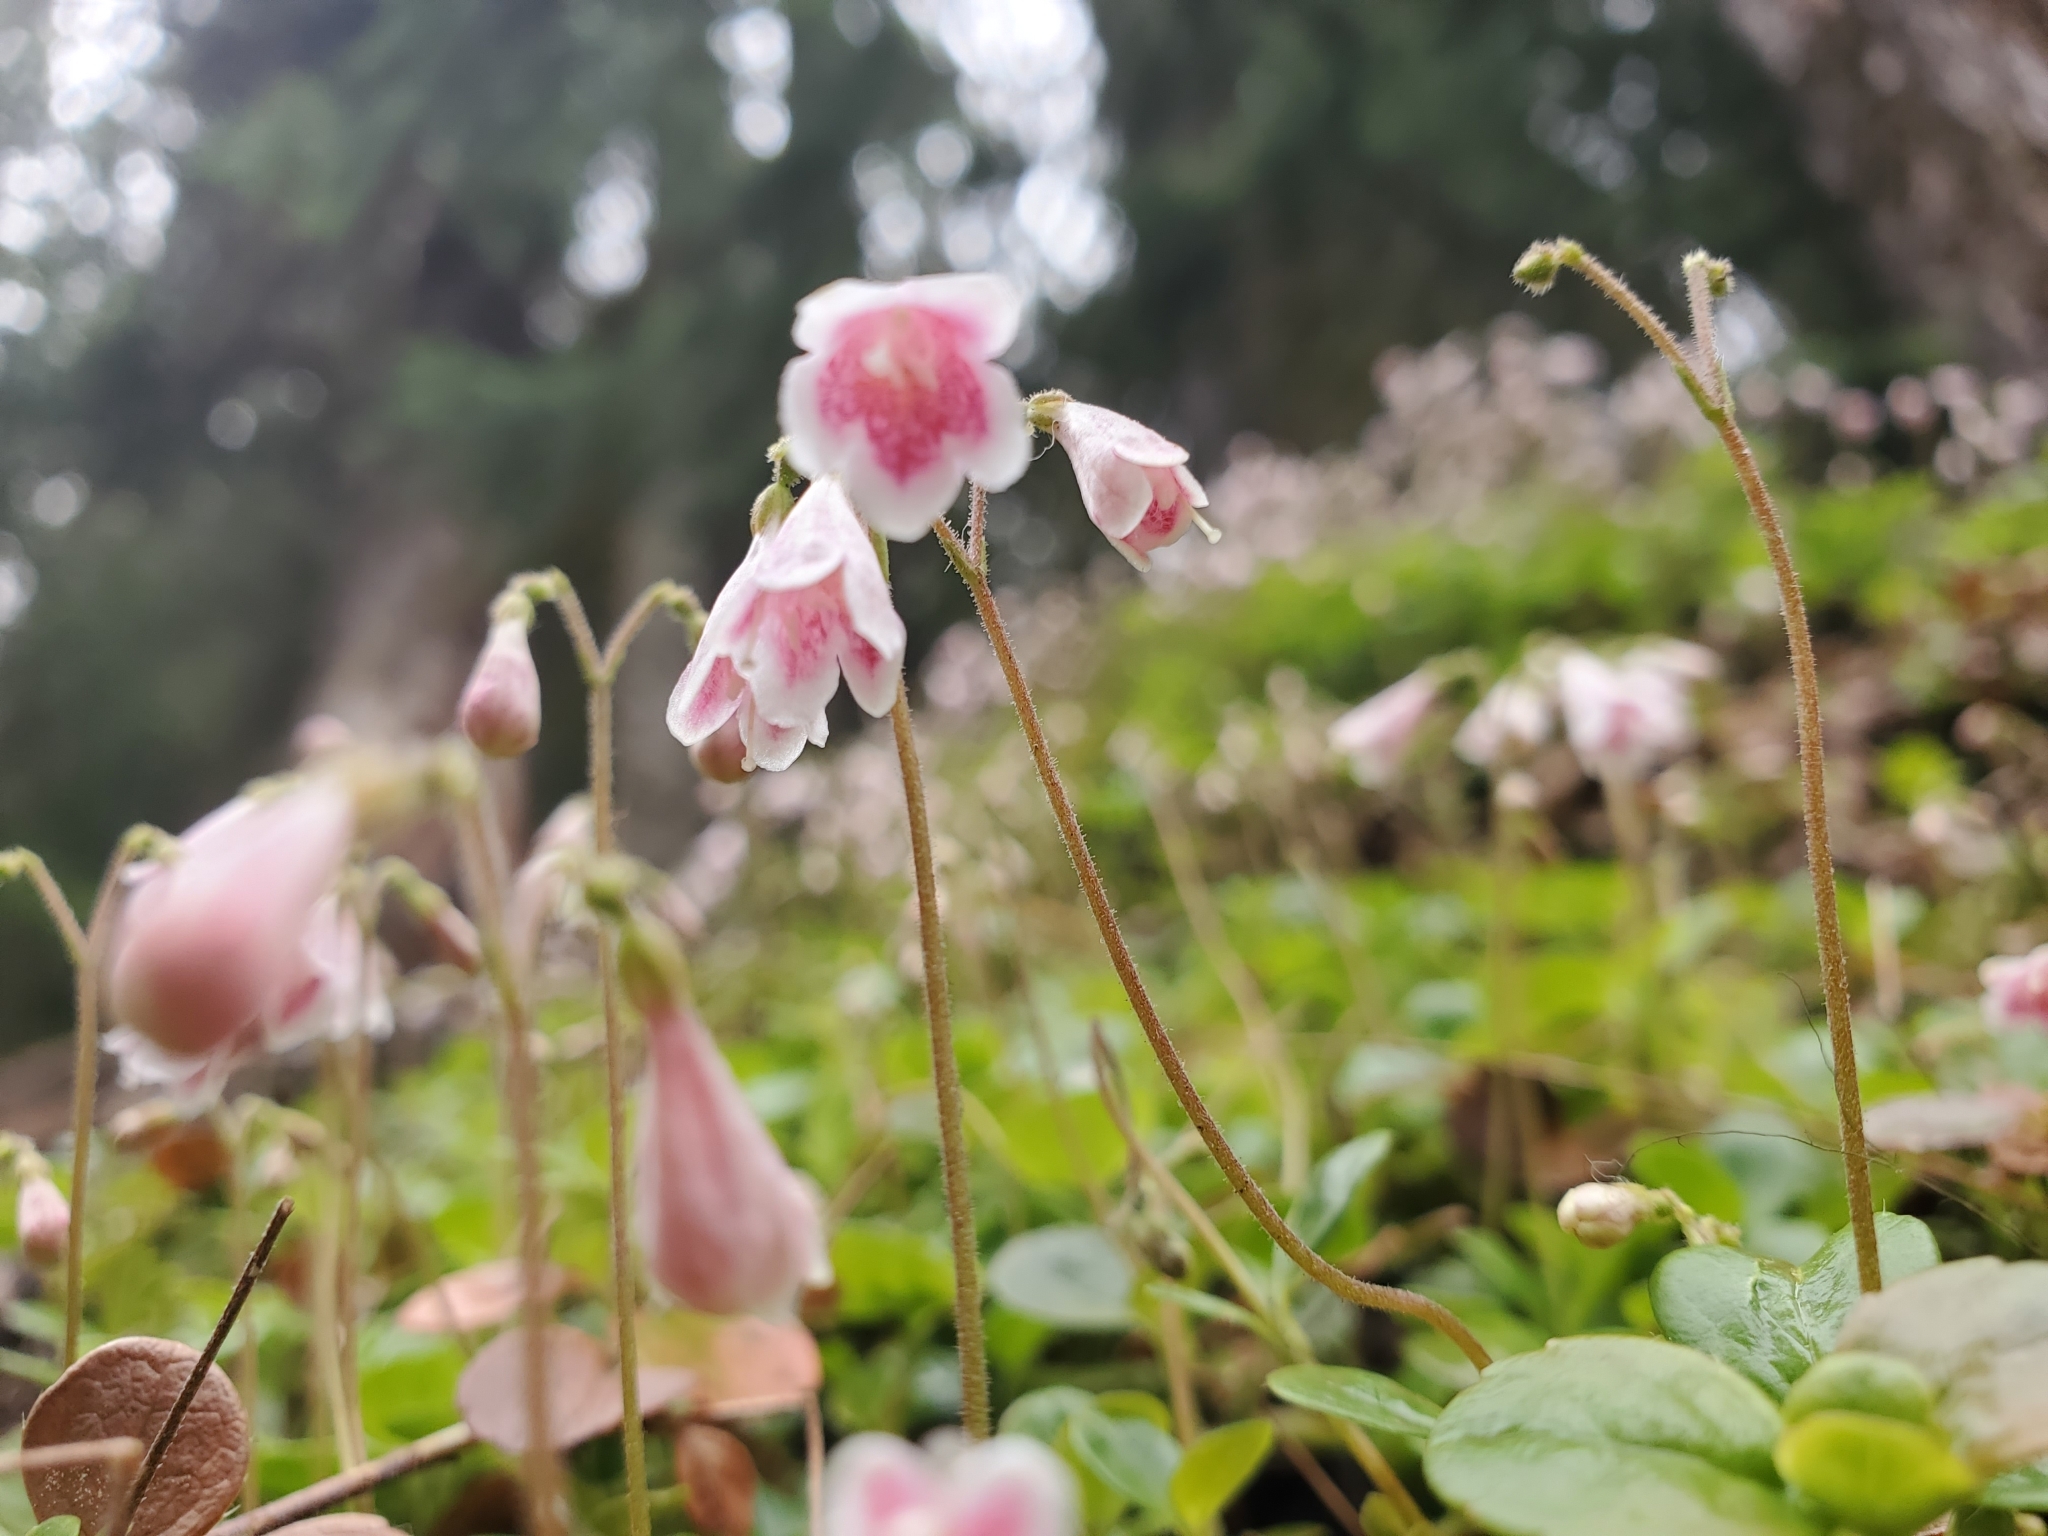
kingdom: Plantae
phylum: Tracheophyta
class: Magnoliopsida
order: Dipsacales
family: Caprifoliaceae
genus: Linnaea
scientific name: Linnaea borealis
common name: Twinflower
